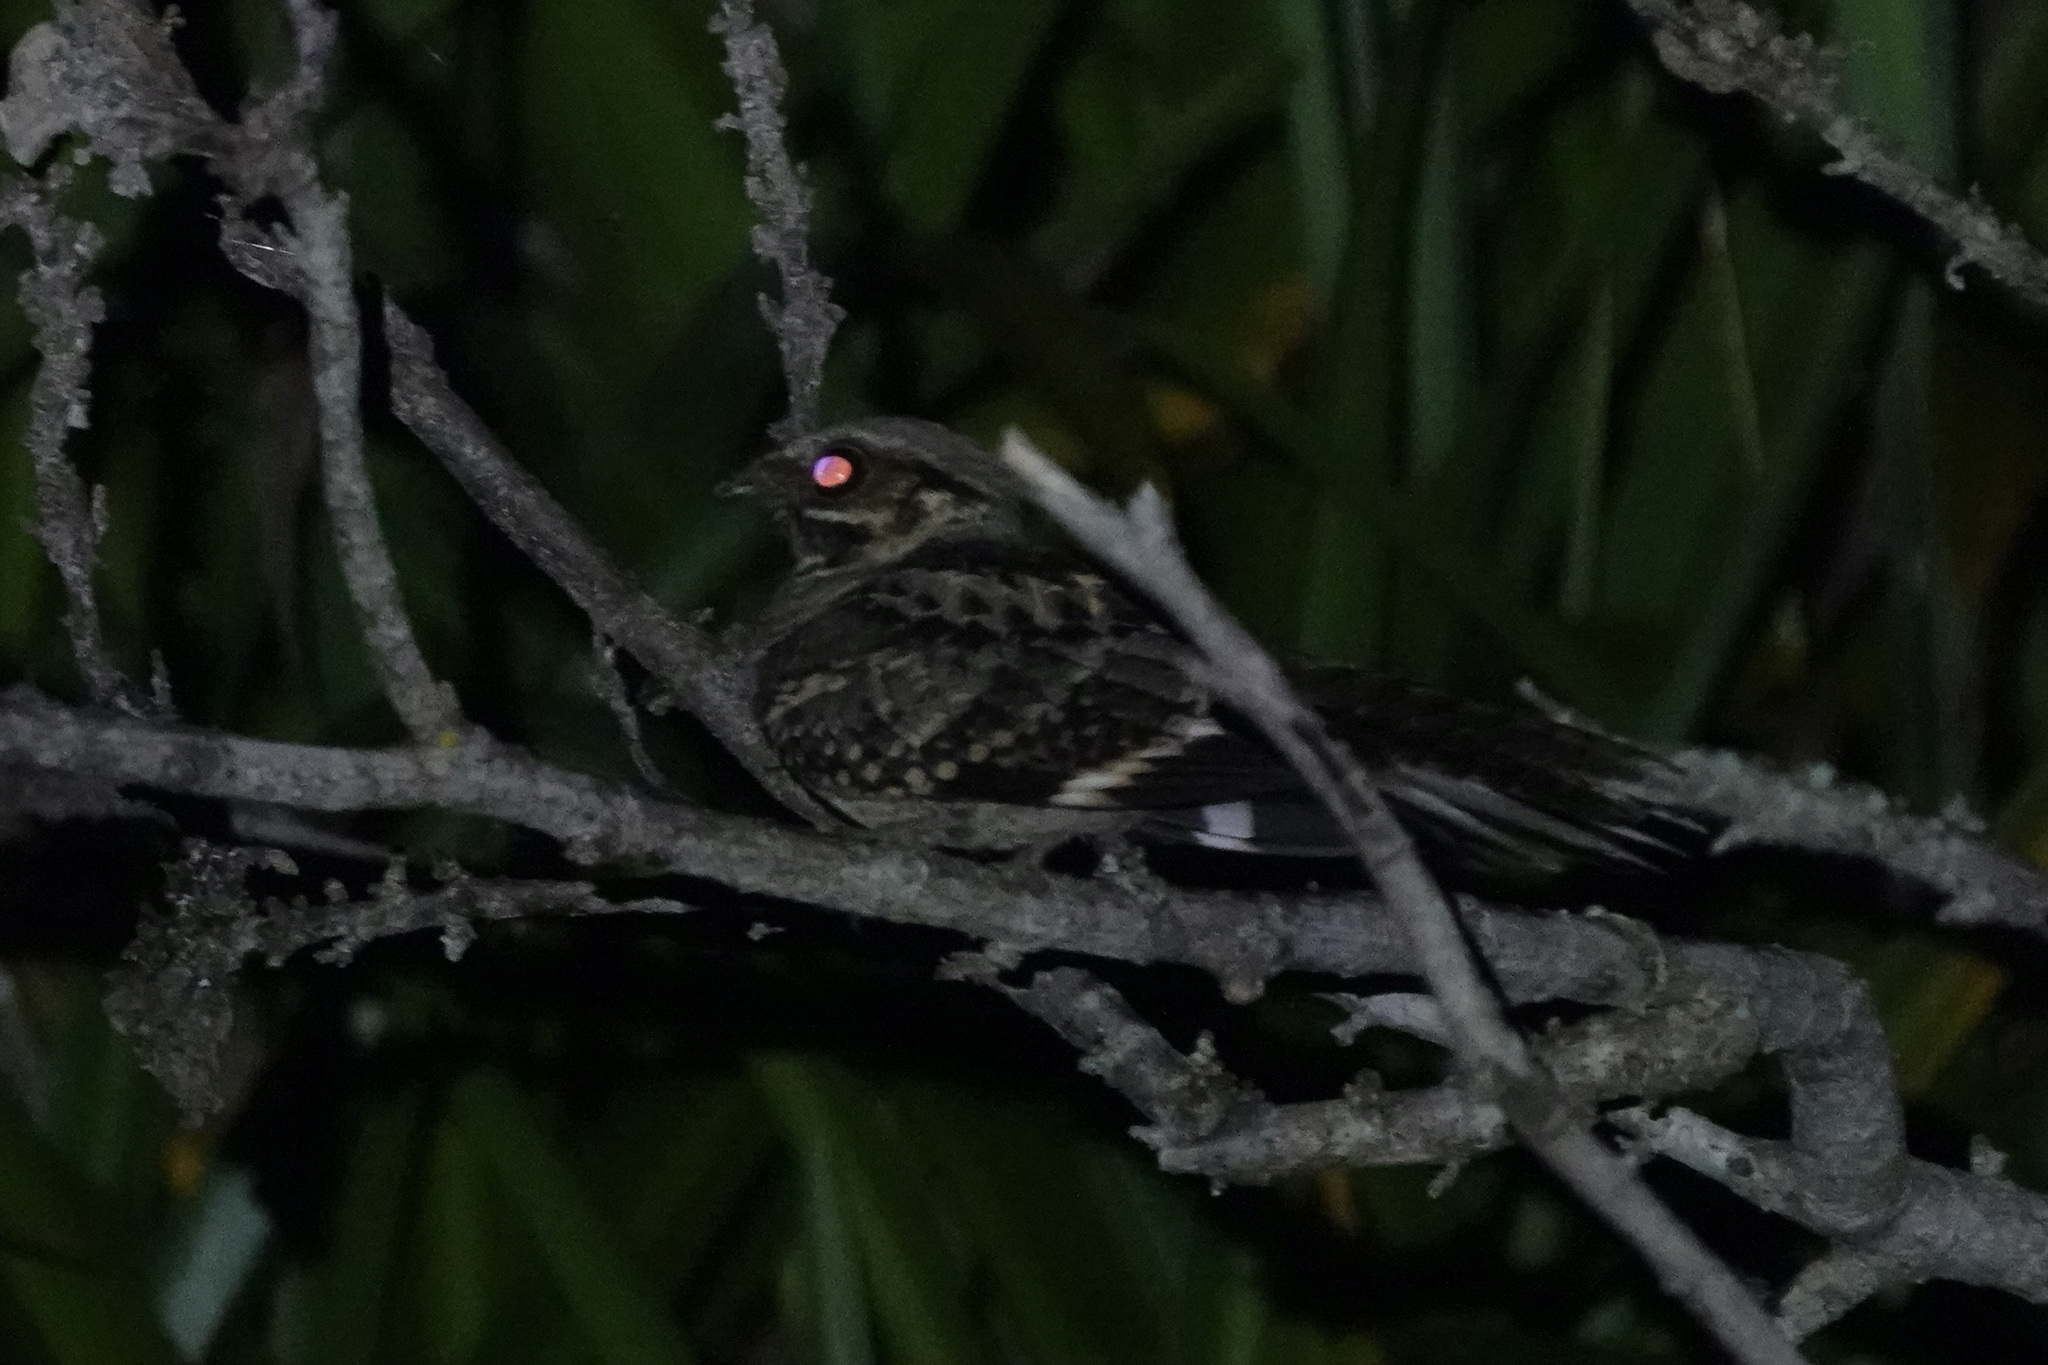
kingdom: Animalia
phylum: Chordata
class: Aves
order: Caprimulgiformes
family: Caprimulgidae
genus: Nyctidromus
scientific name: Nyctidromus albicollis
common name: Pauraque
